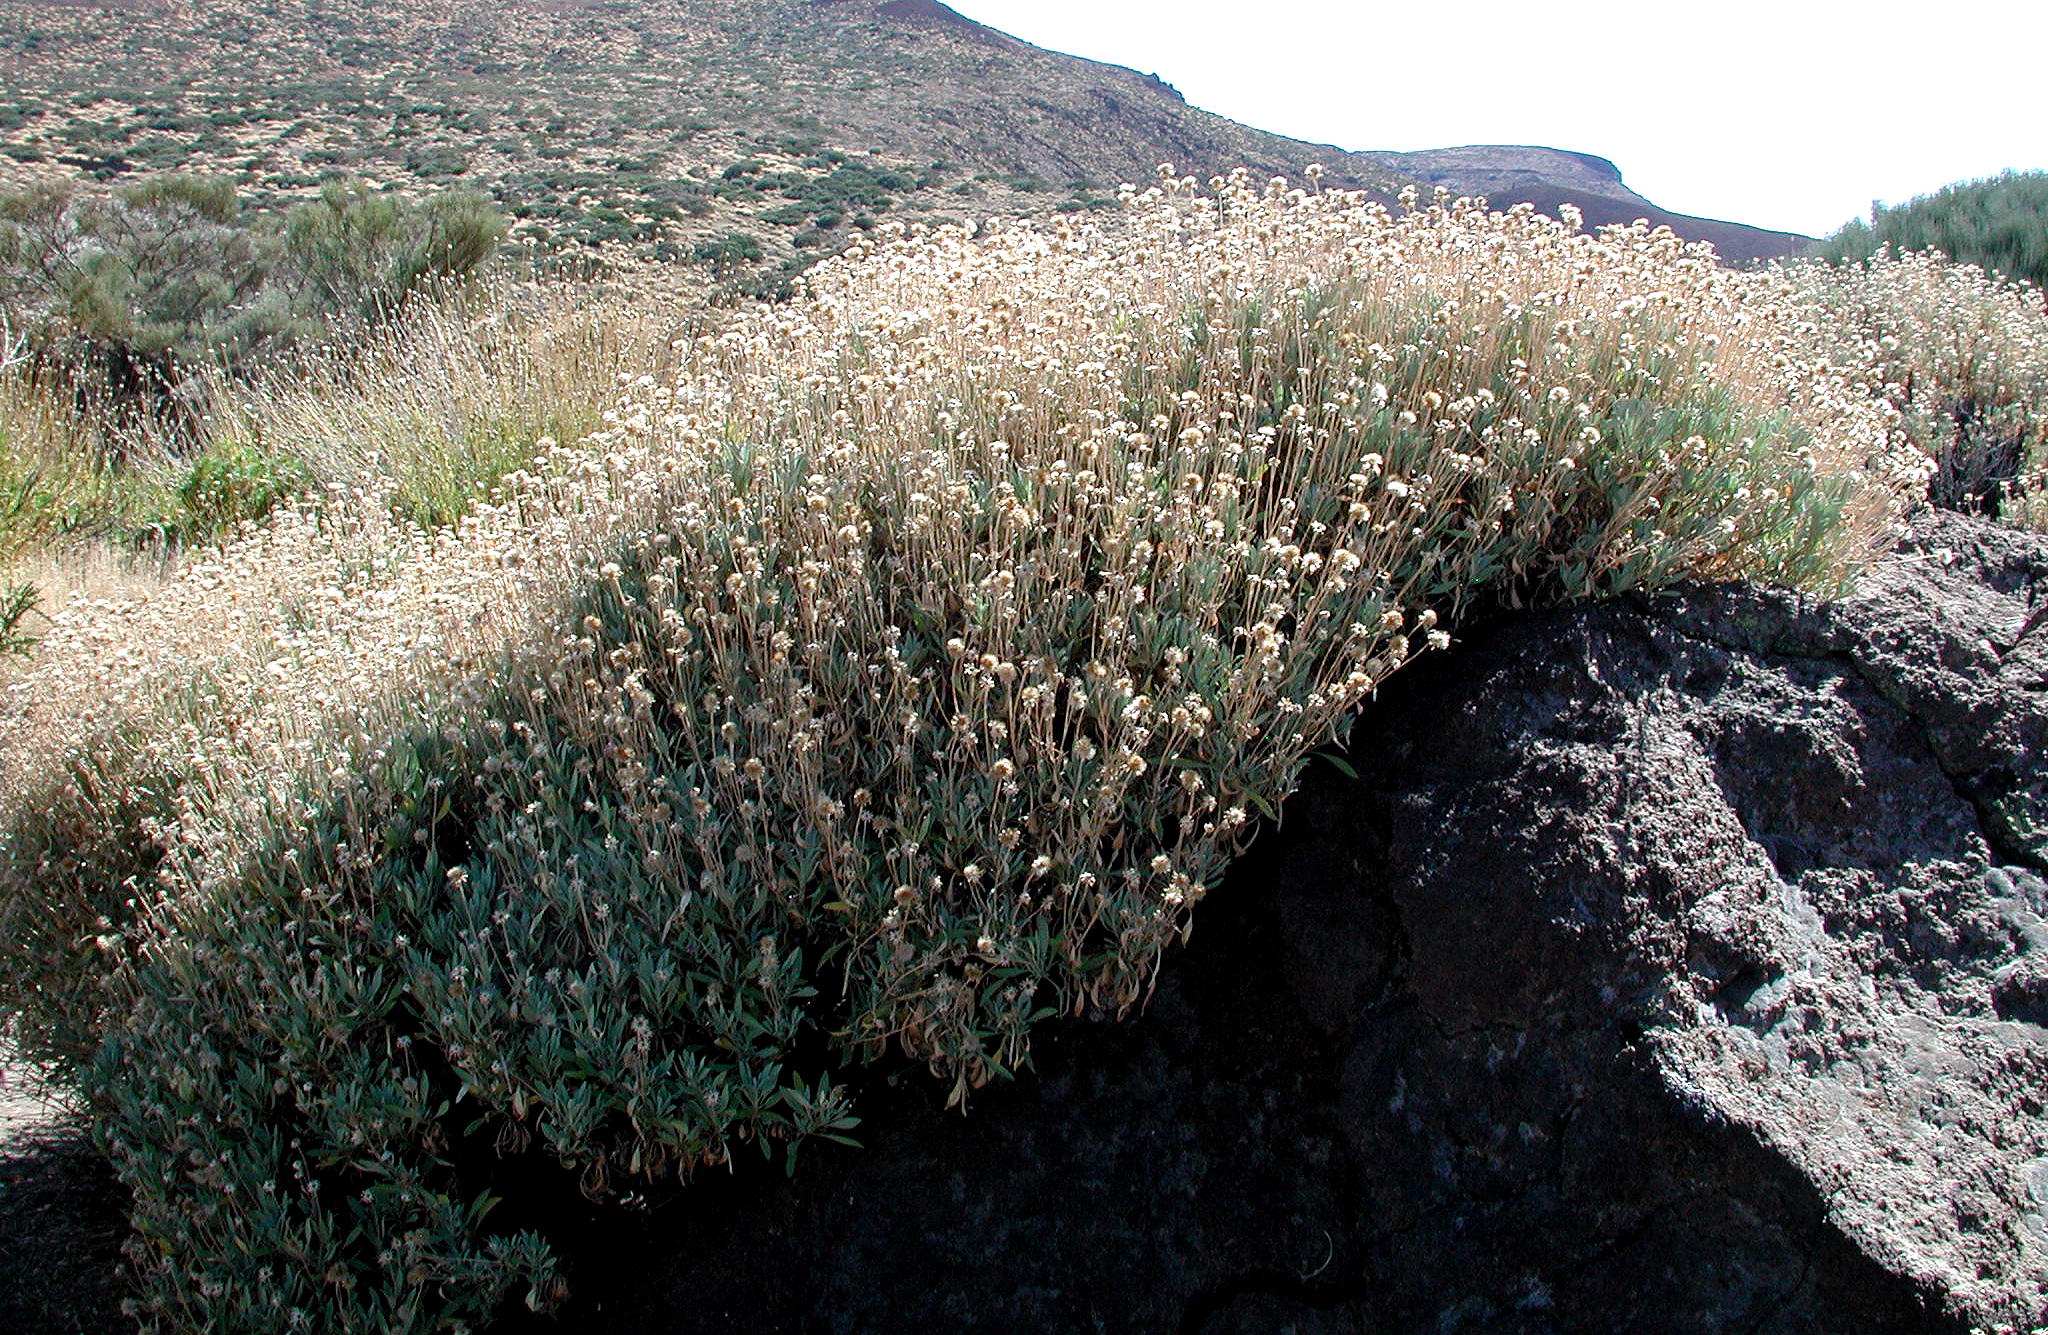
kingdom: Plantae
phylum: Tracheophyta
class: Magnoliopsida
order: Dipsacales
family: Caprifoliaceae
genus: Pterocephalus
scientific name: Pterocephalus lasiospermus
